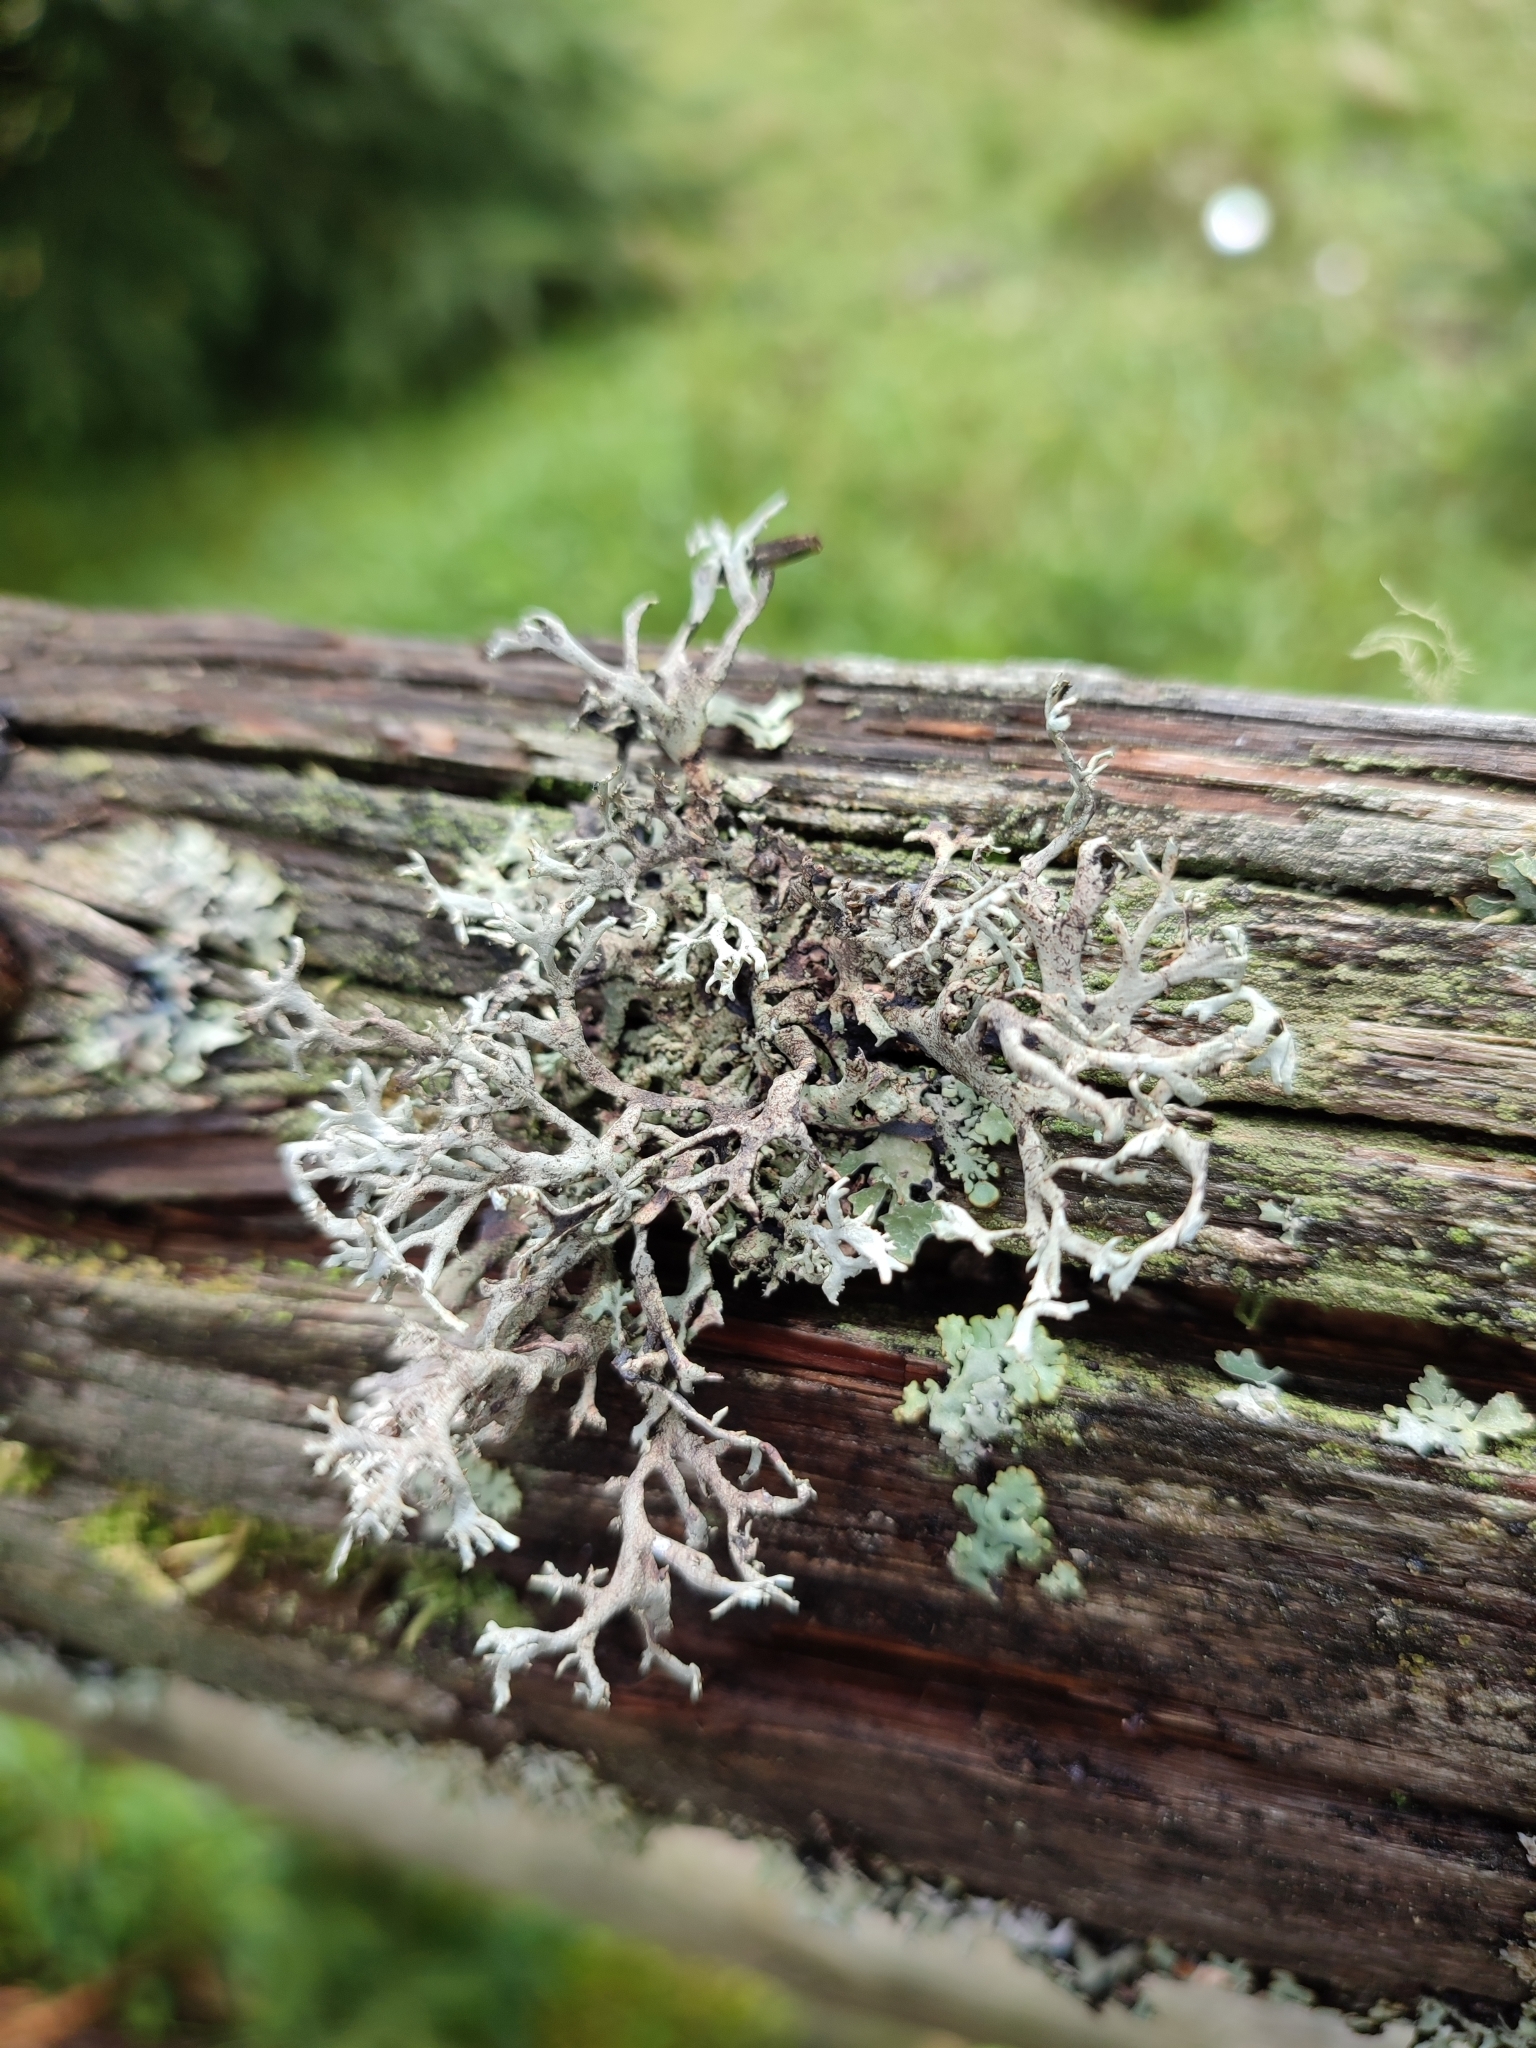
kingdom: Fungi
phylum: Ascomycota
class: Lecanoromycetes
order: Lecanorales
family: Parmeliaceae
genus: Pseudevernia
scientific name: Pseudevernia furfuracea
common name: Tree moss
